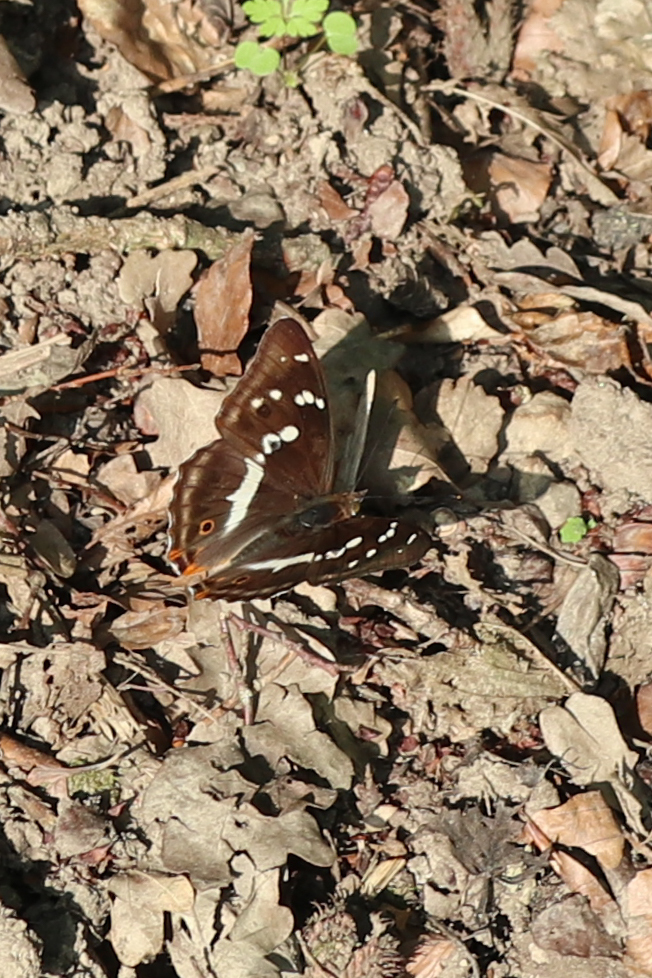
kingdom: Animalia
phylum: Arthropoda
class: Insecta
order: Lepidoptera
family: Nymphalidae
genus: Apatura
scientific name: Apatura iris
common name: Purple emperor
